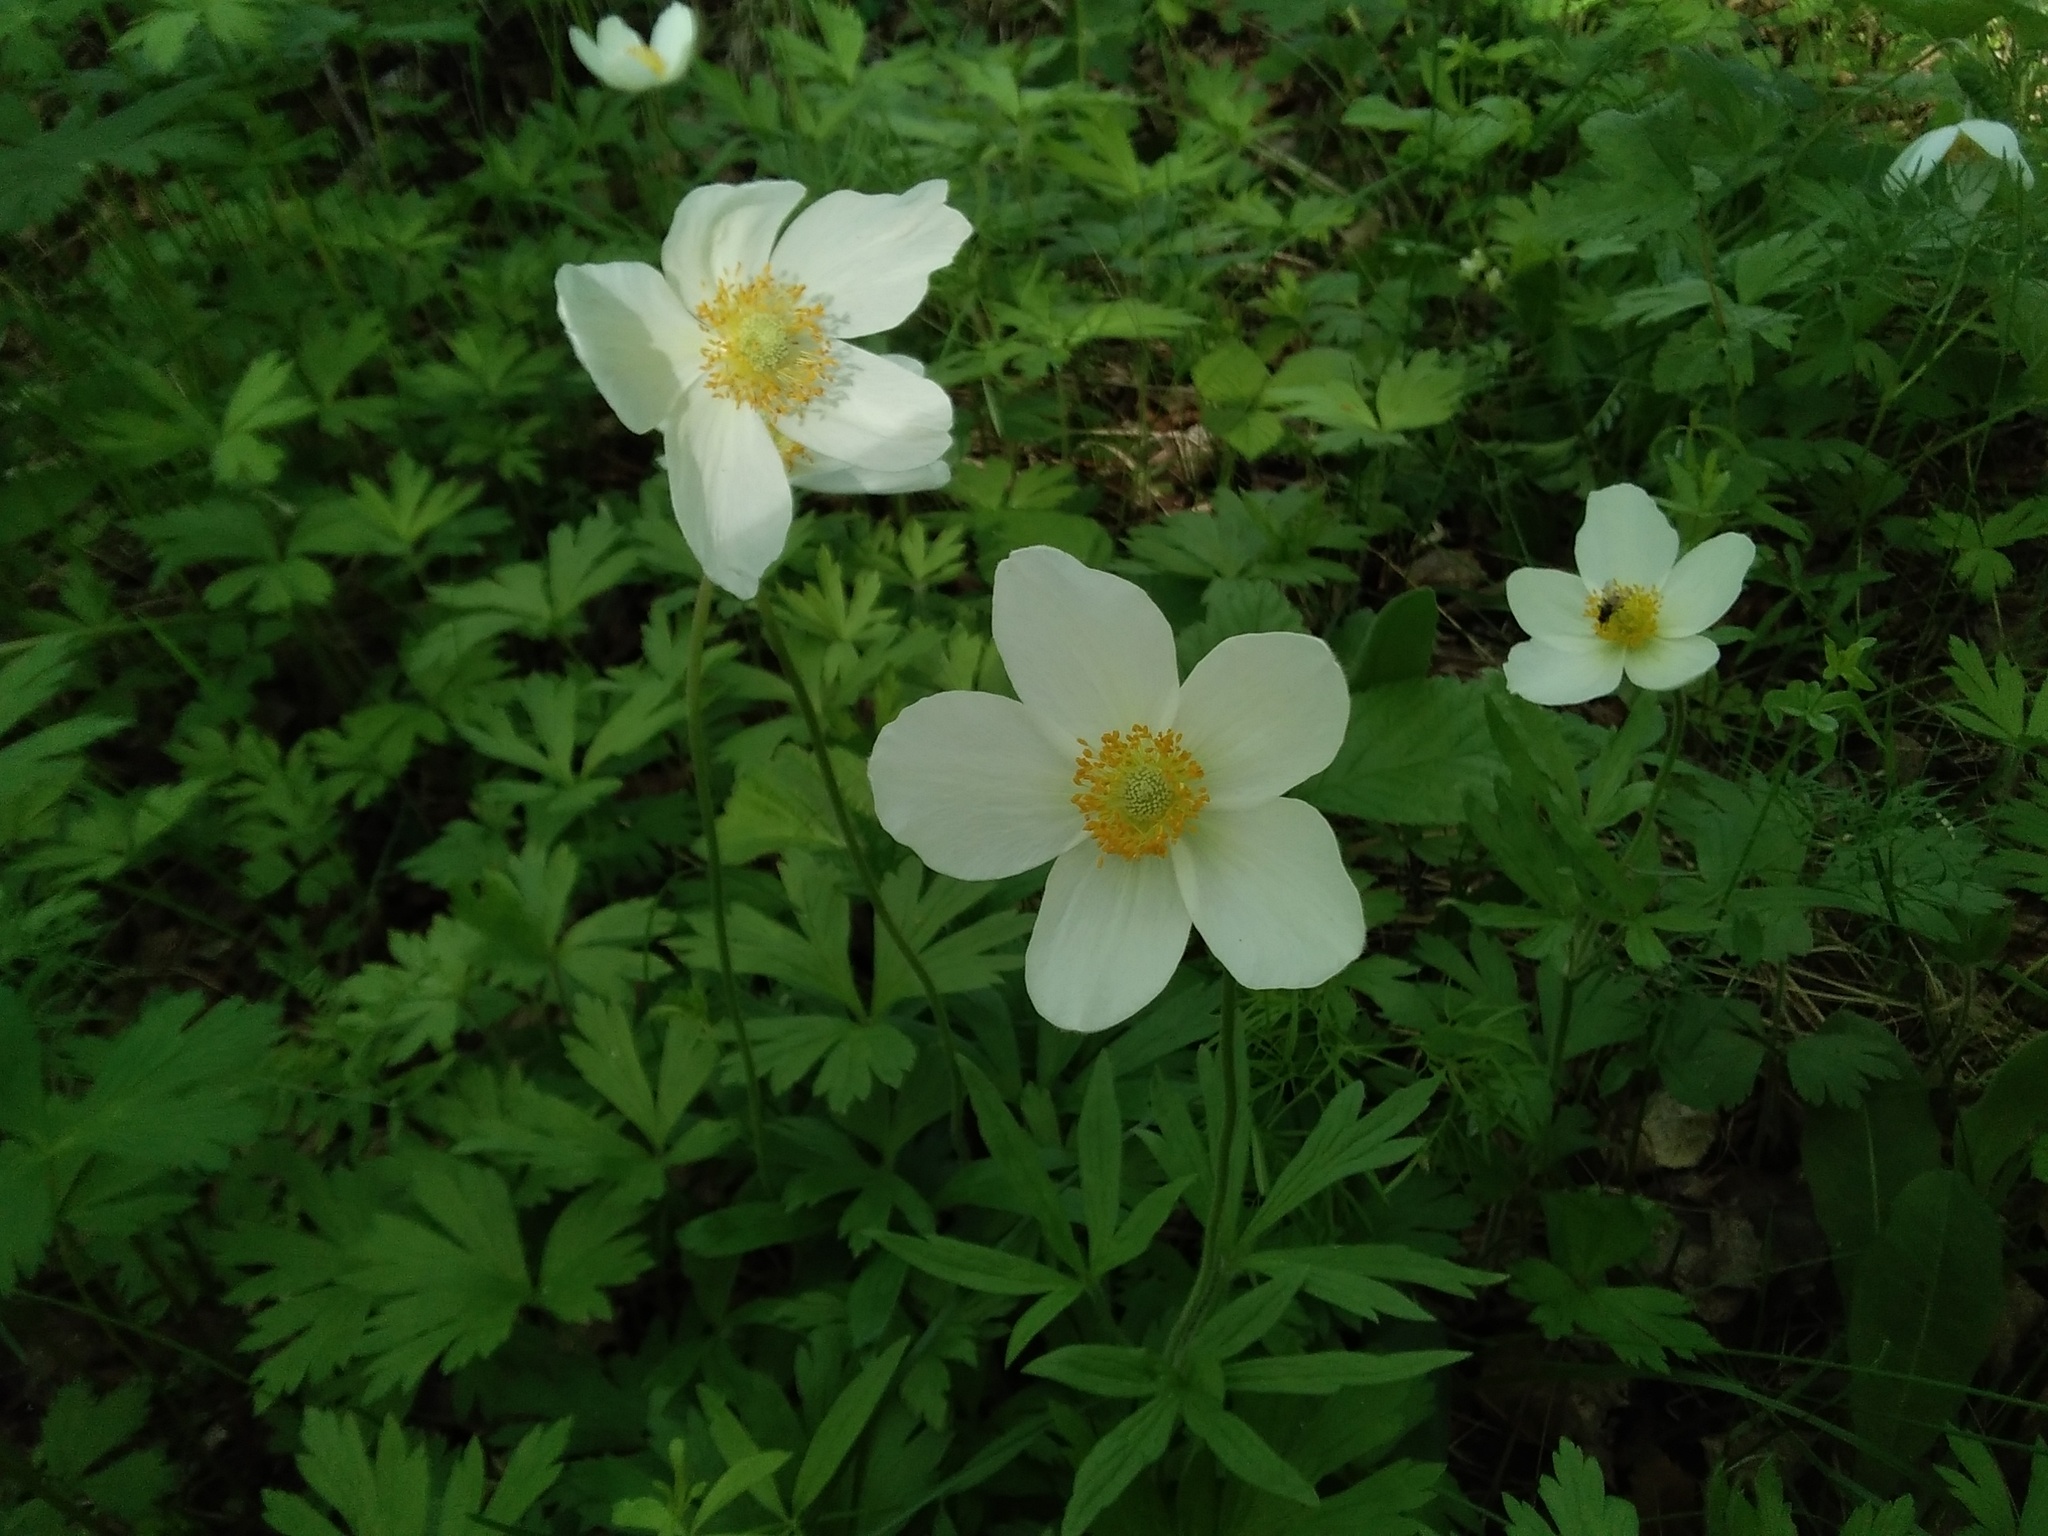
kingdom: Plantae
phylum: Tracheophyta
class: Magnoliopsida
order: Ranunculales
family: Ranunculaceae
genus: Anemone
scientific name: Anemone sylvestris
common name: Snowdrop anemone
